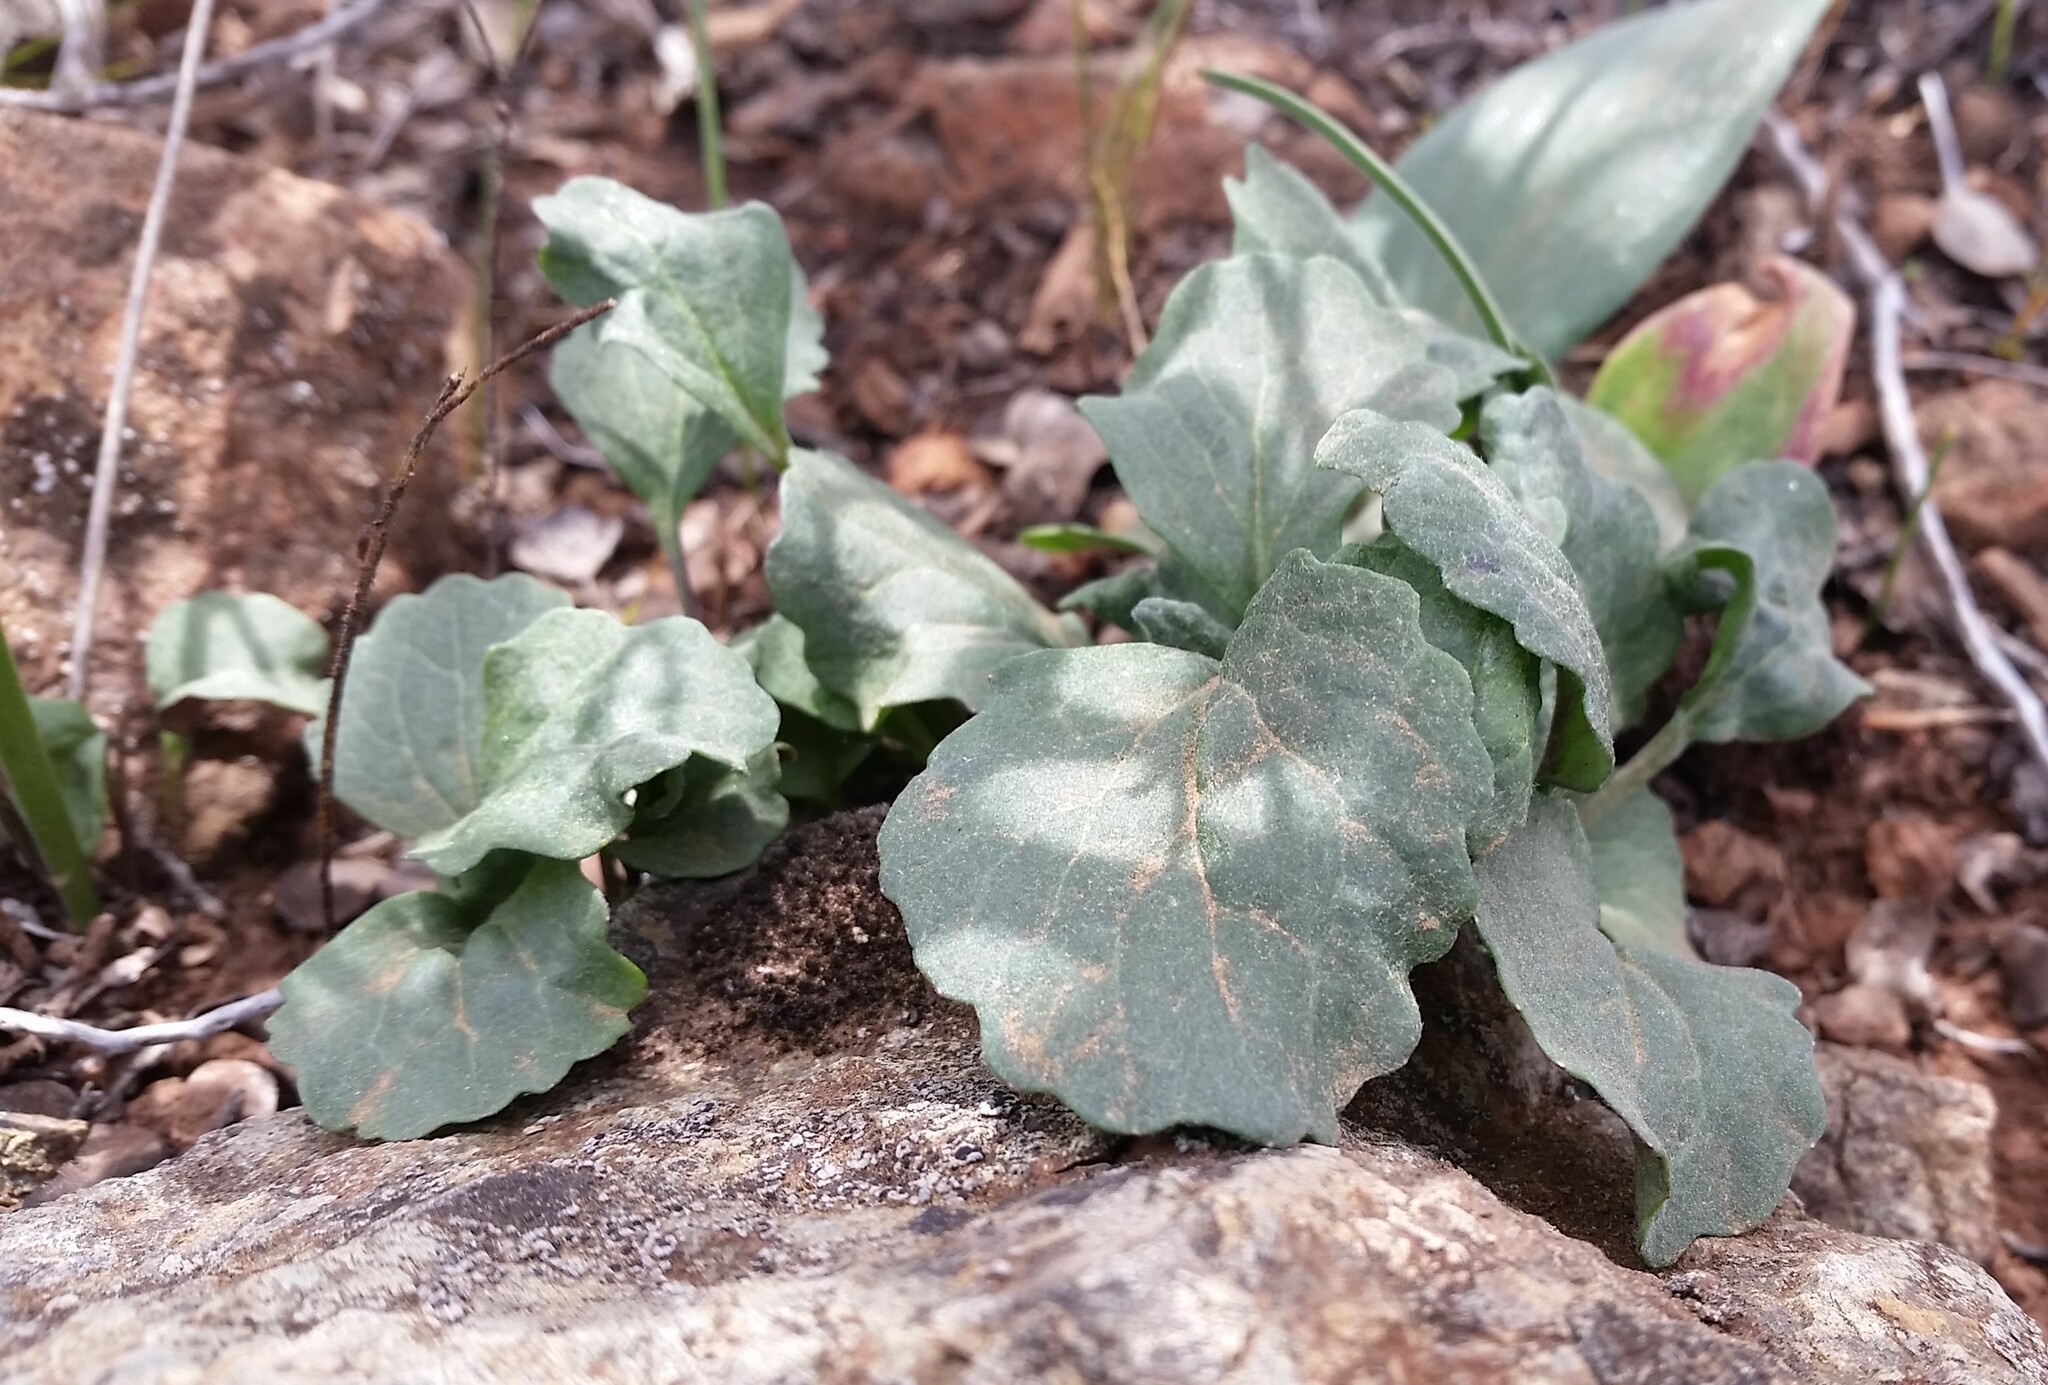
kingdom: Plantae
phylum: Tracheophyta
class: Magnoliopsida
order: Asterales
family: Asteraceae
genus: Packera
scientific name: Packera greenei
